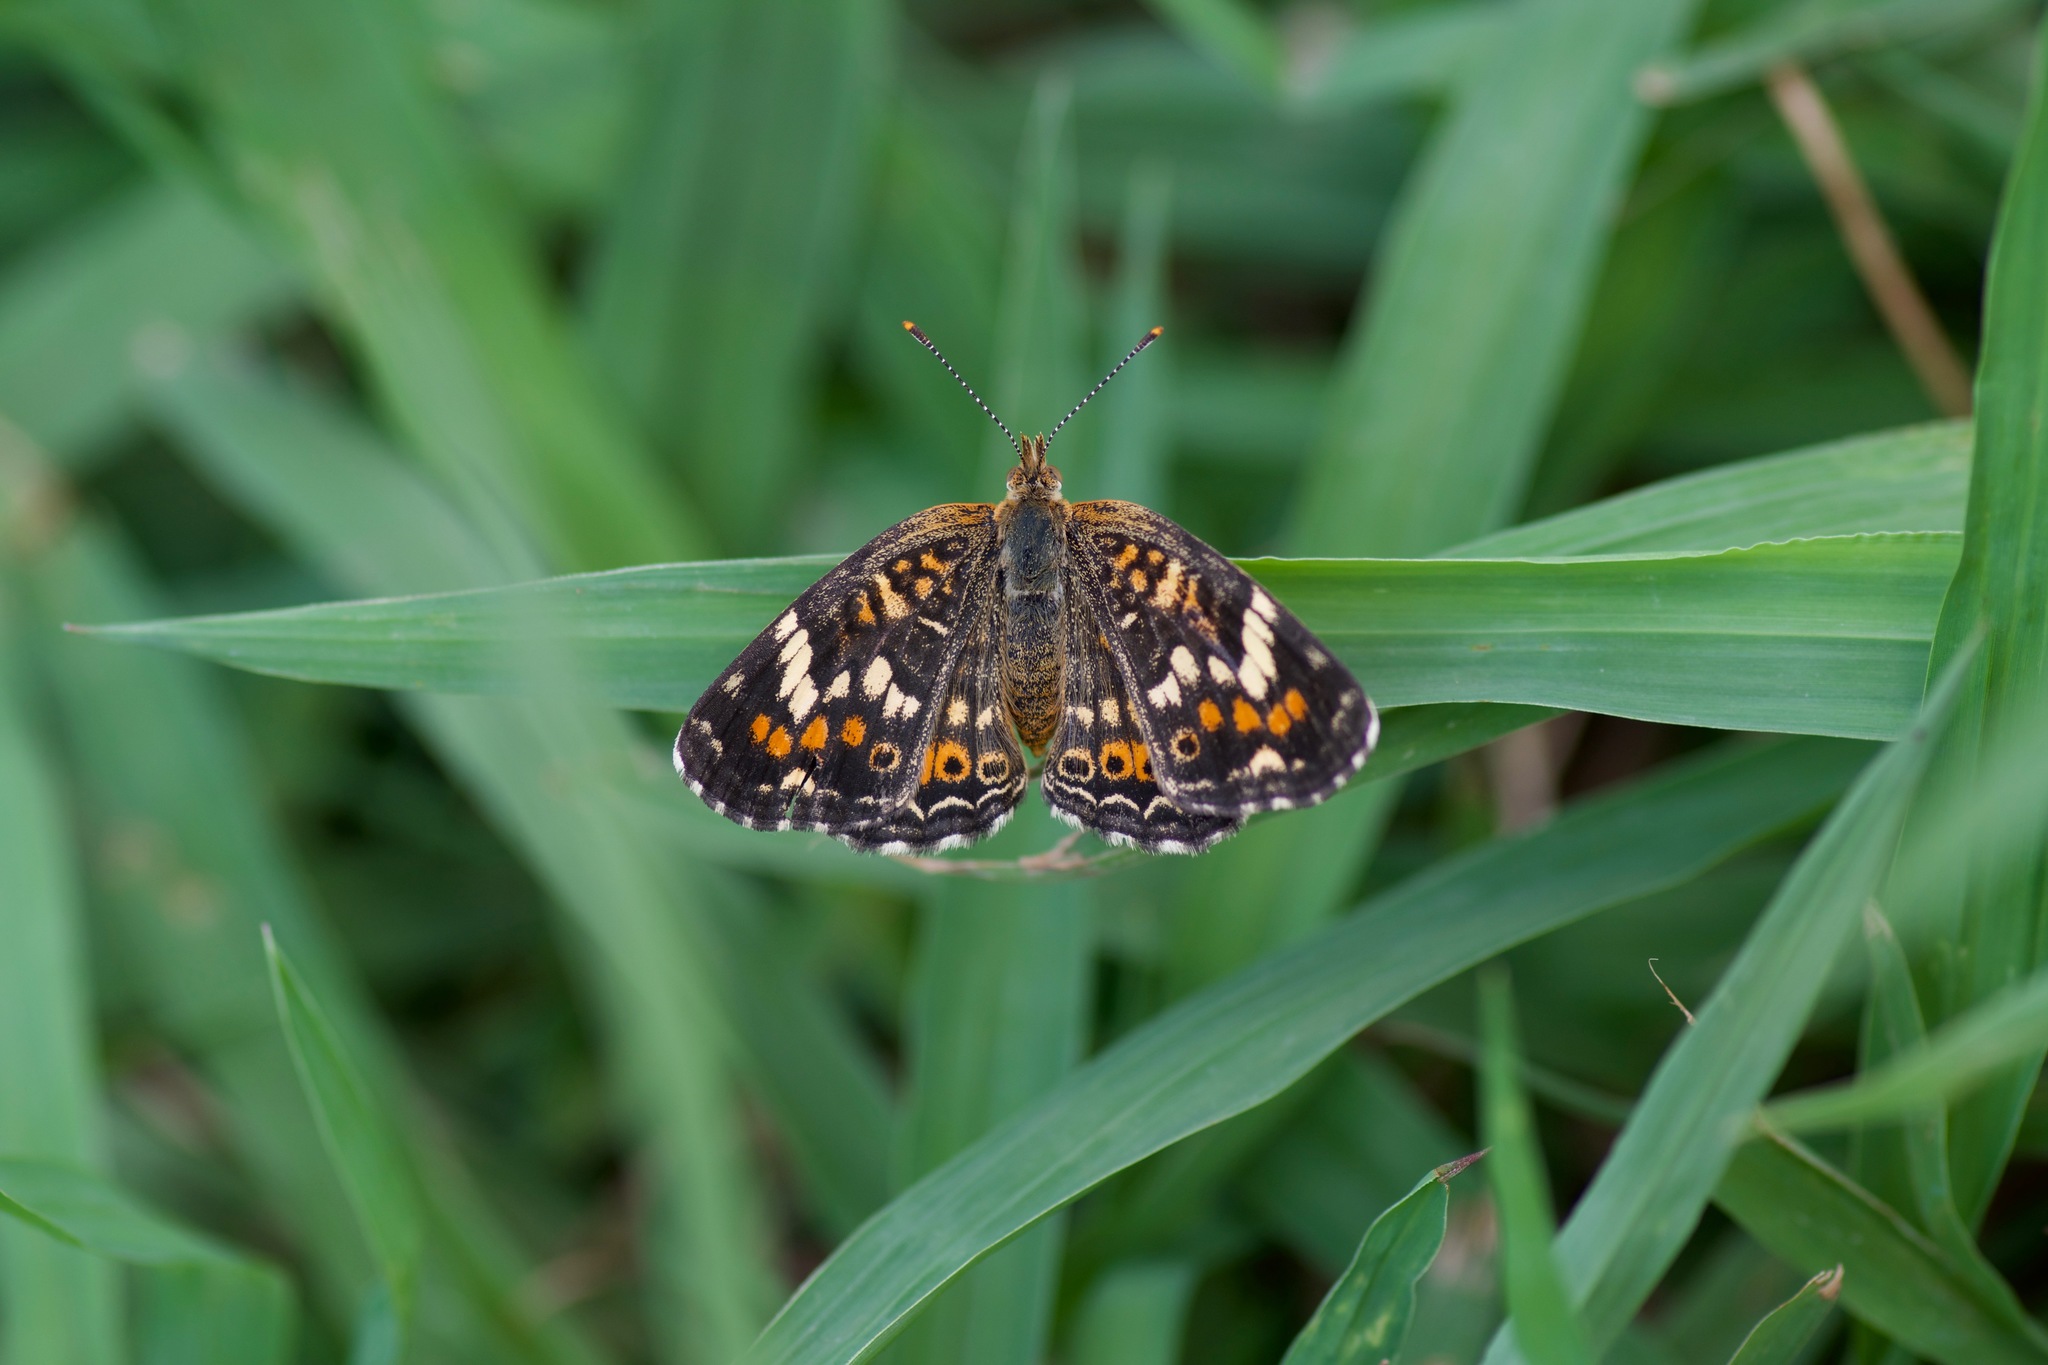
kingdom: Animalia
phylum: Arthropoda
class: Insecta
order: Lepidoptera
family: Nymphalidae
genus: Phyciodes
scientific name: Phyciodes phaon
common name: Phaon crescent
